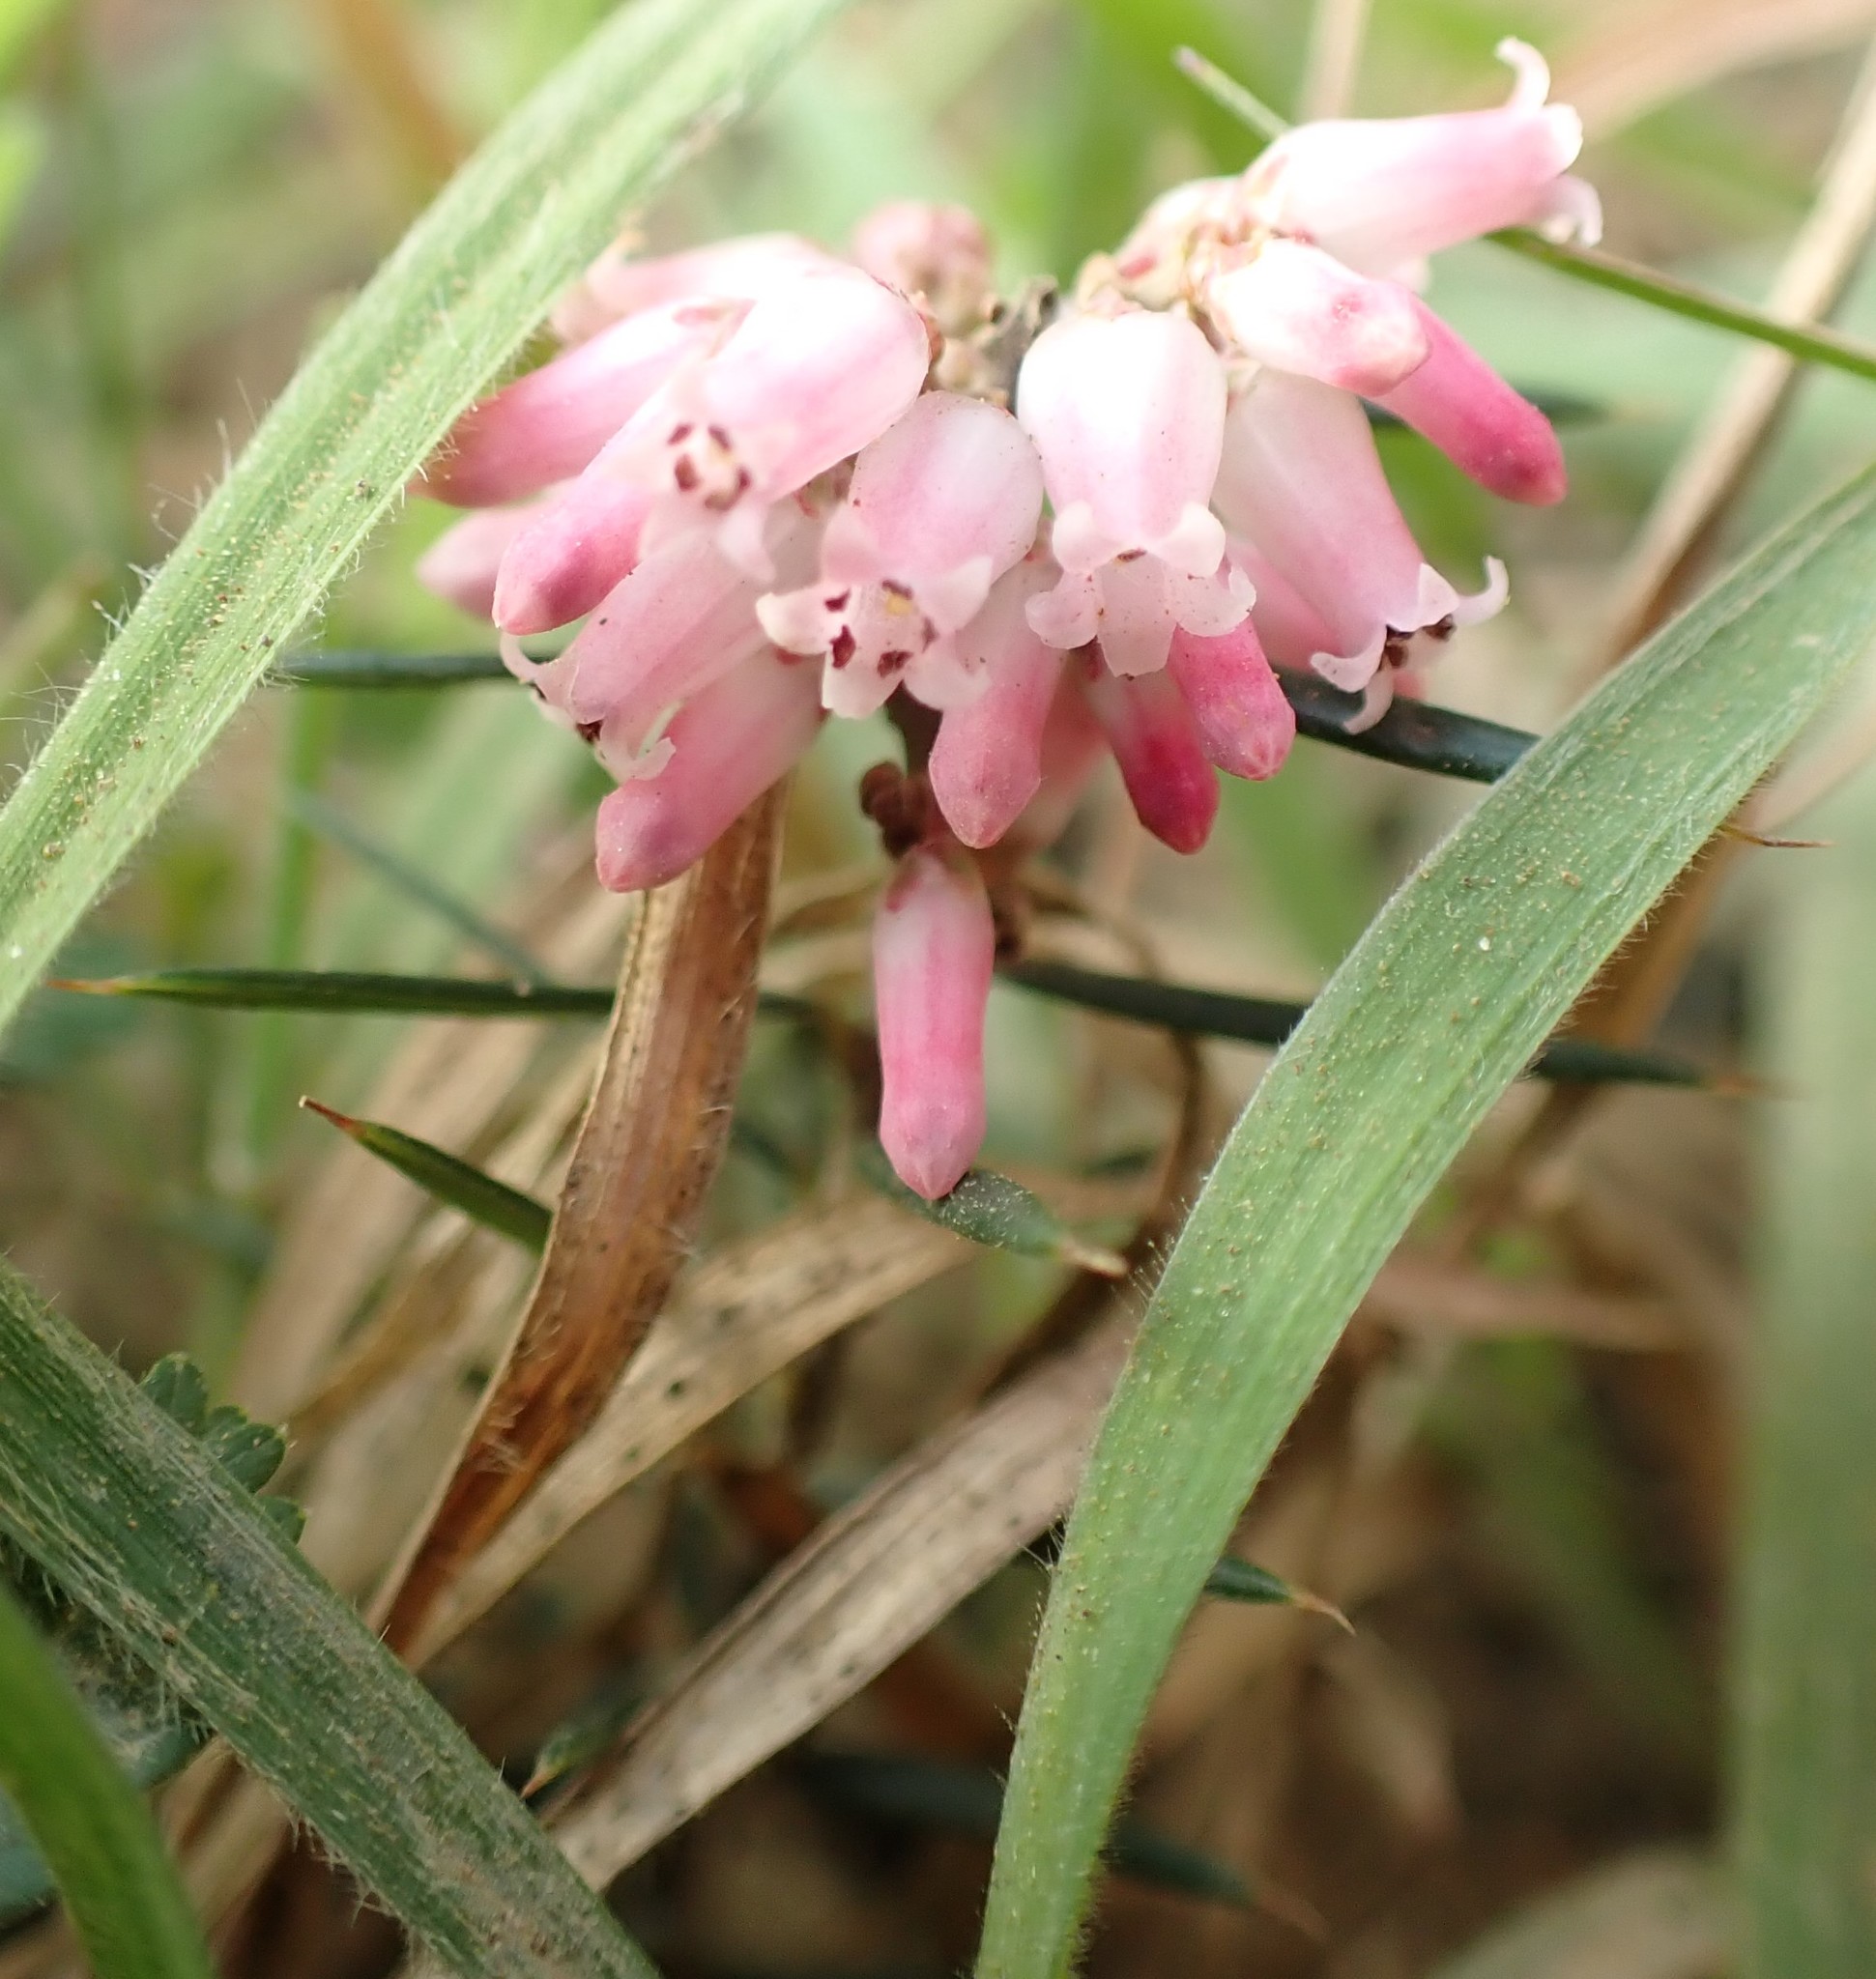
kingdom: Plantae
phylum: Tracheophyta
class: Magnoliopsida
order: Ericales
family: Ericaceae
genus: Lissanthe
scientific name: Lissanthe strigosa
